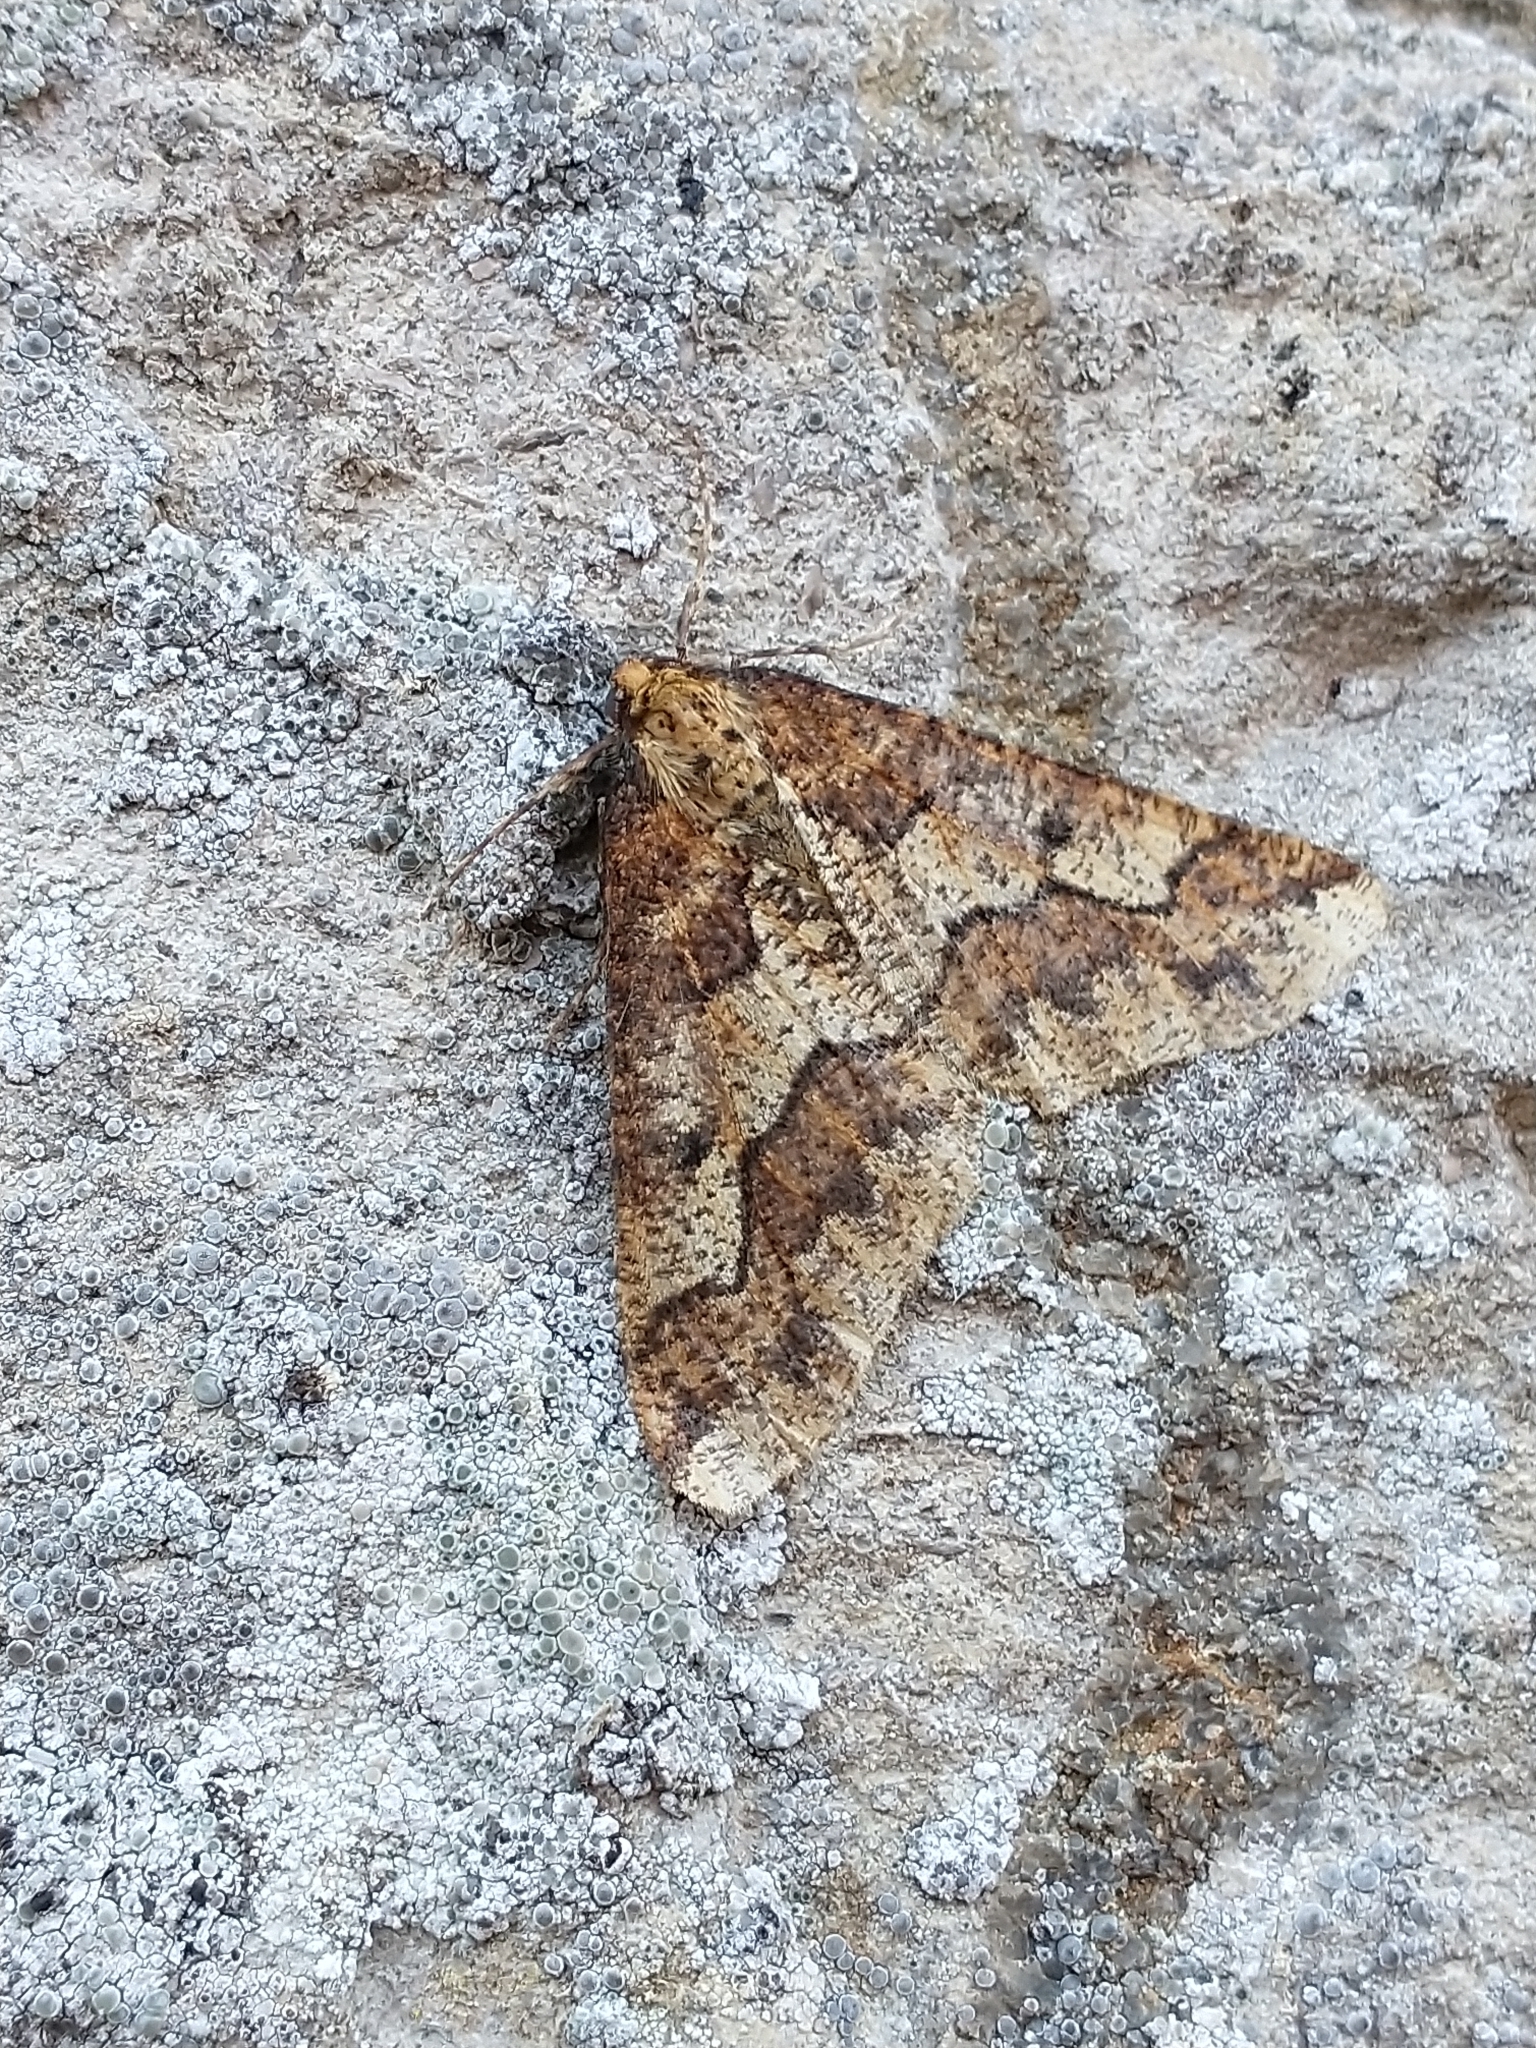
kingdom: Animalia
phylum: Arthropoda
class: Insecta
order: Lepidoptera
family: Geometridae
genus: Erannis
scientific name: Erannis defoliaria
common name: Mottled umber
